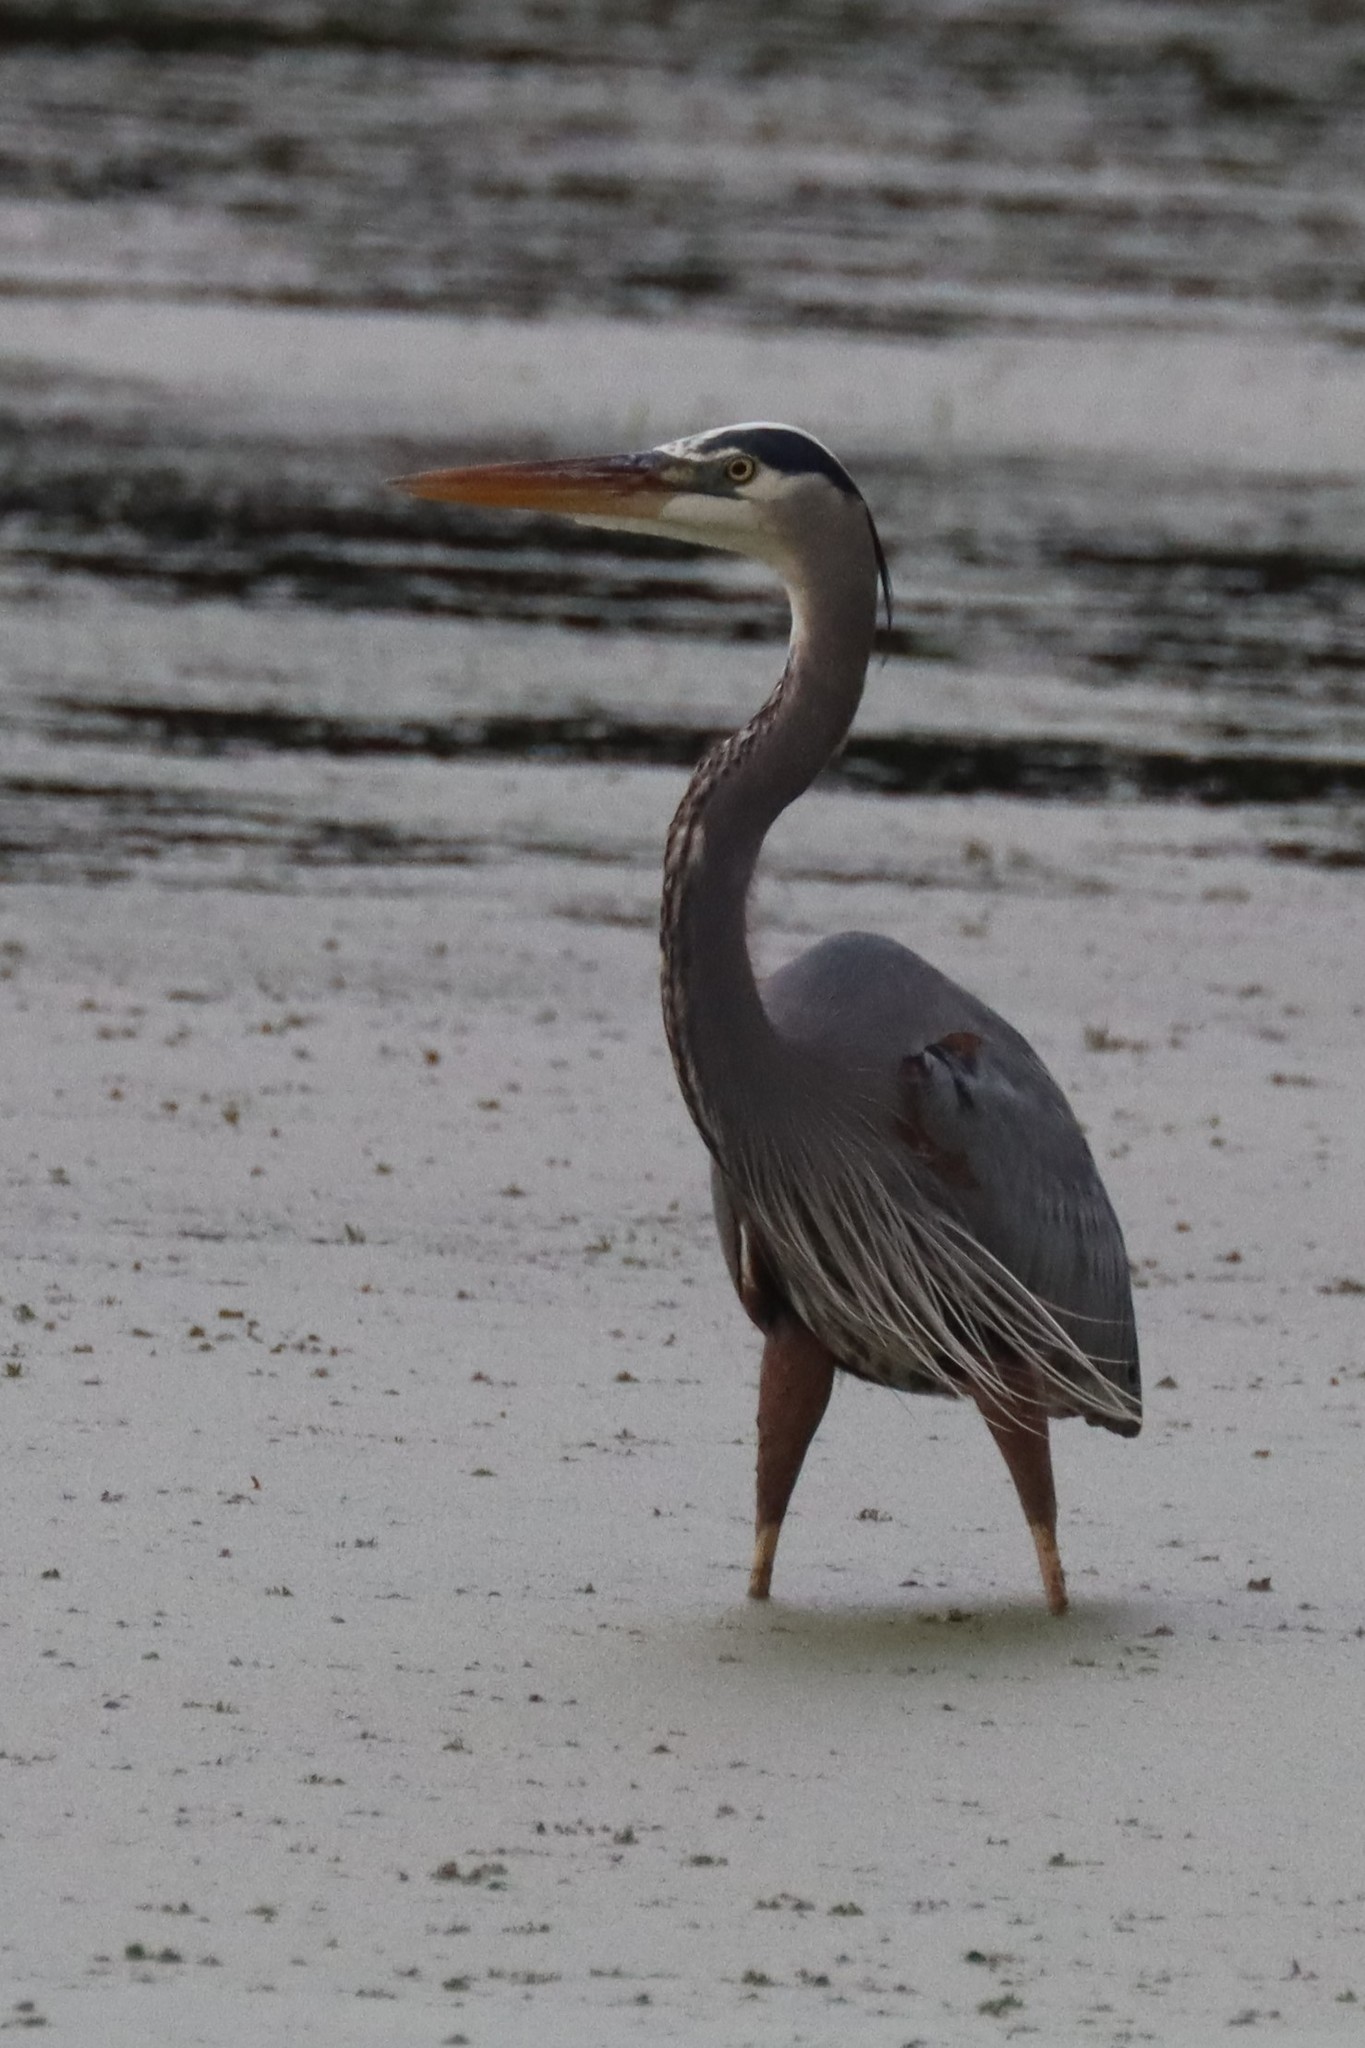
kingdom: Animalia
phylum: Chordata
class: Aves
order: Pelecaniformes
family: Ardeidae
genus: Ardea
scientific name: Ardea herodias
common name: Great blue heron
